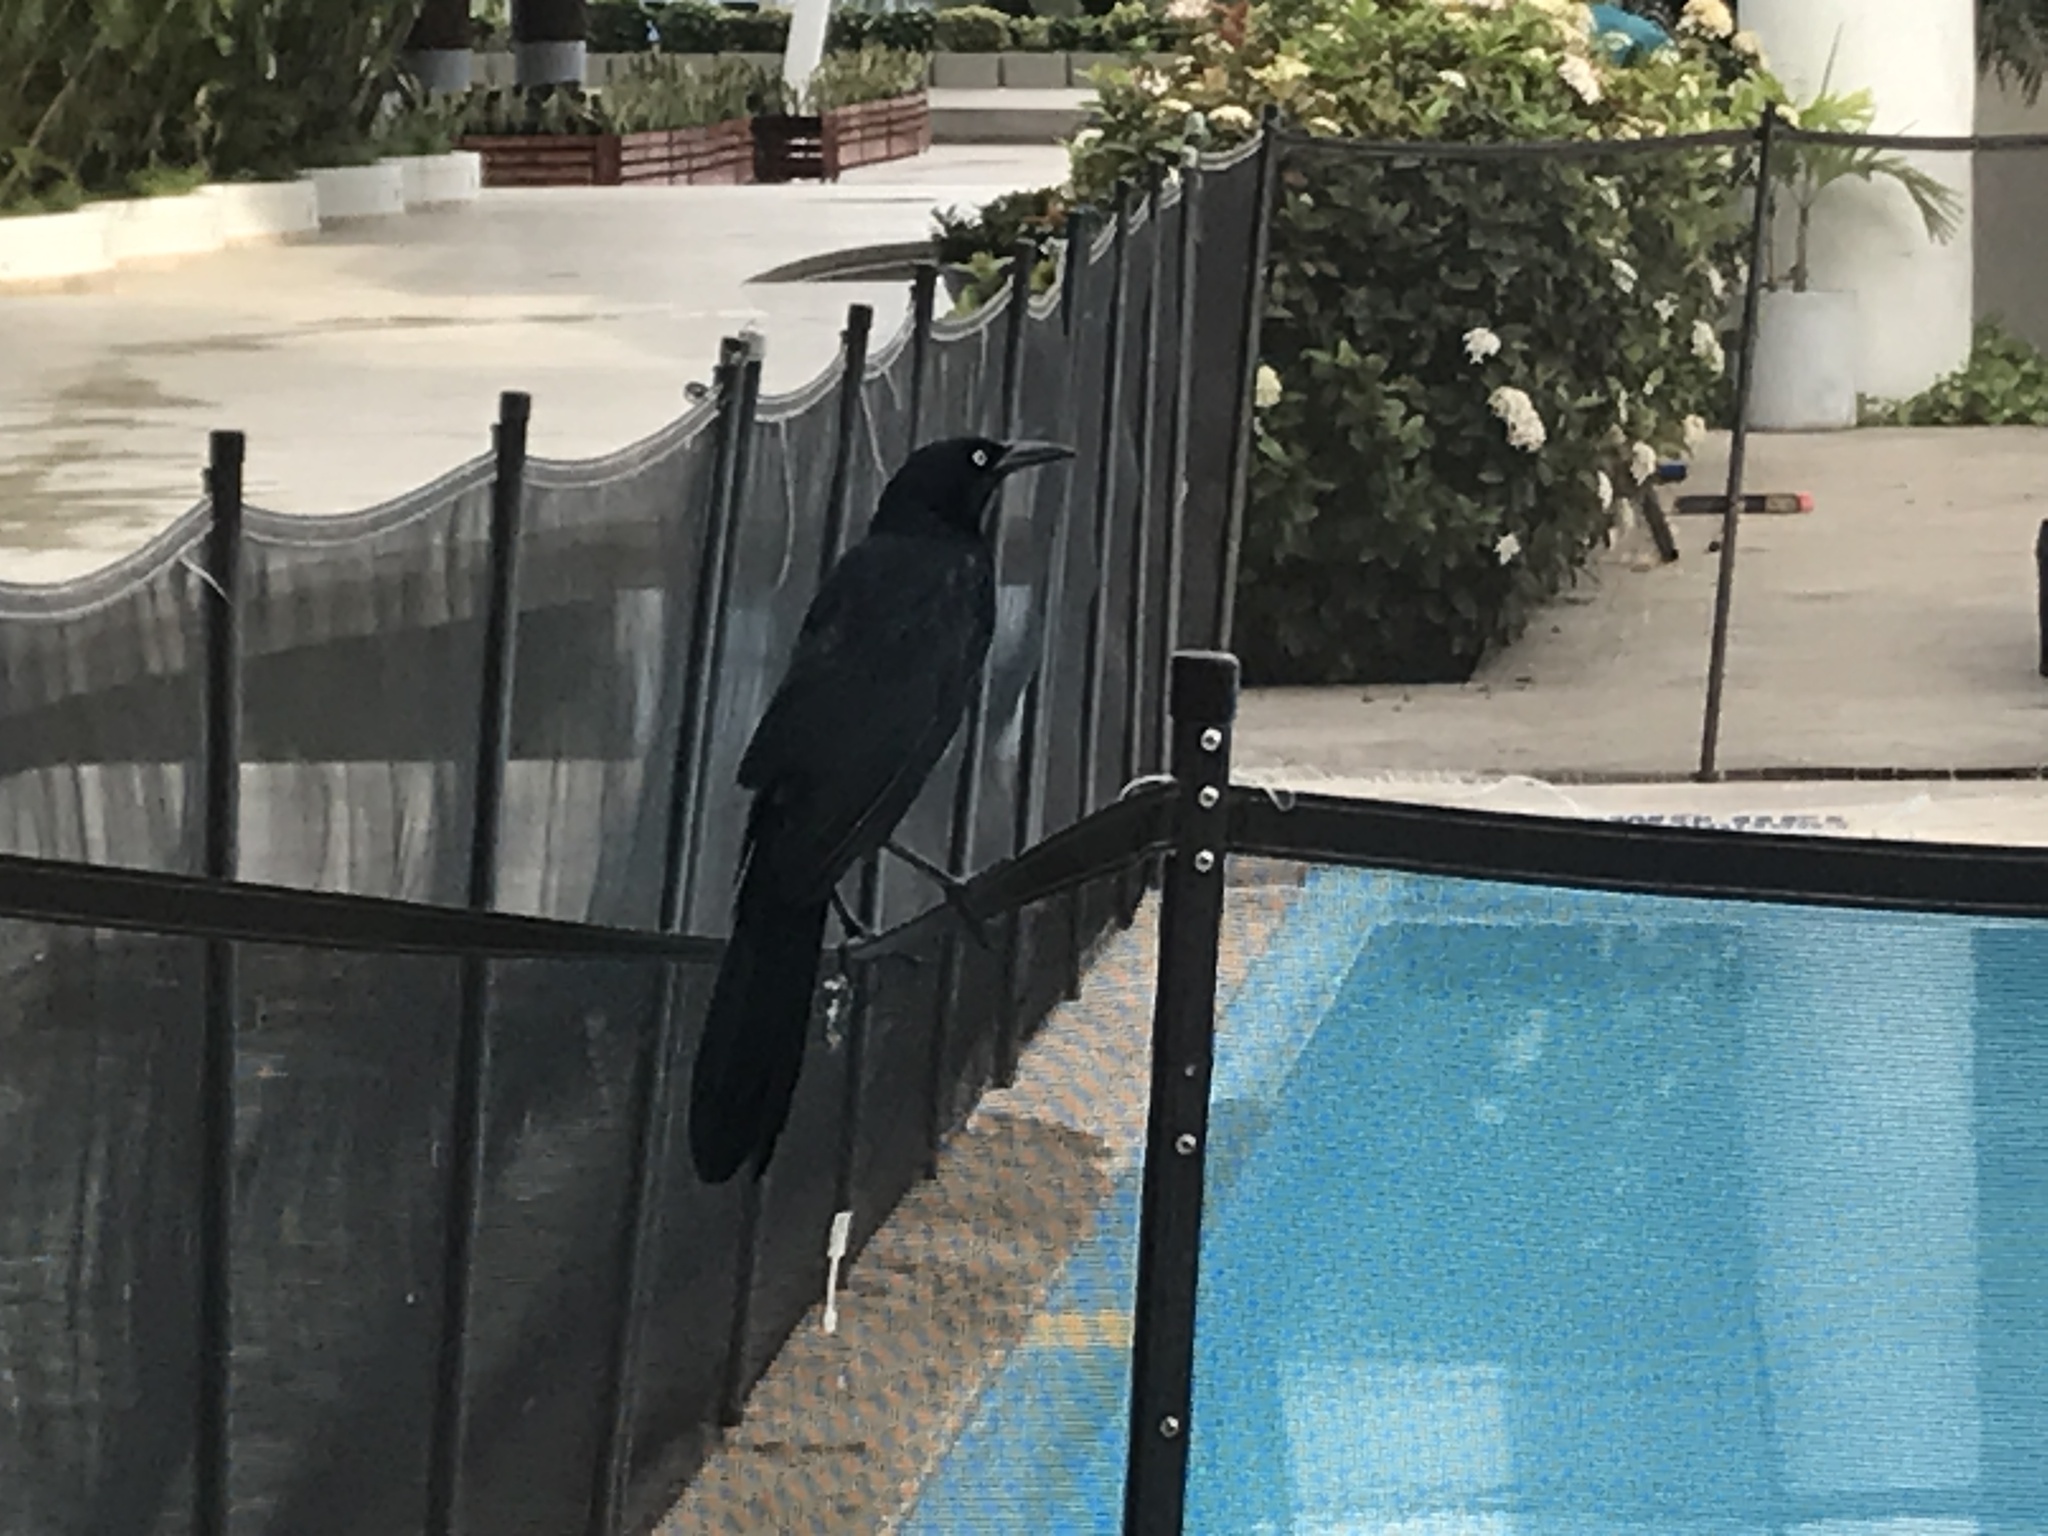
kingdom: Animalia
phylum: Chordata
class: Aves
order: Passeriformes
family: Icteridae
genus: Quiscalus
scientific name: Quiscalus mexicanus
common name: Great-tailed grackle
